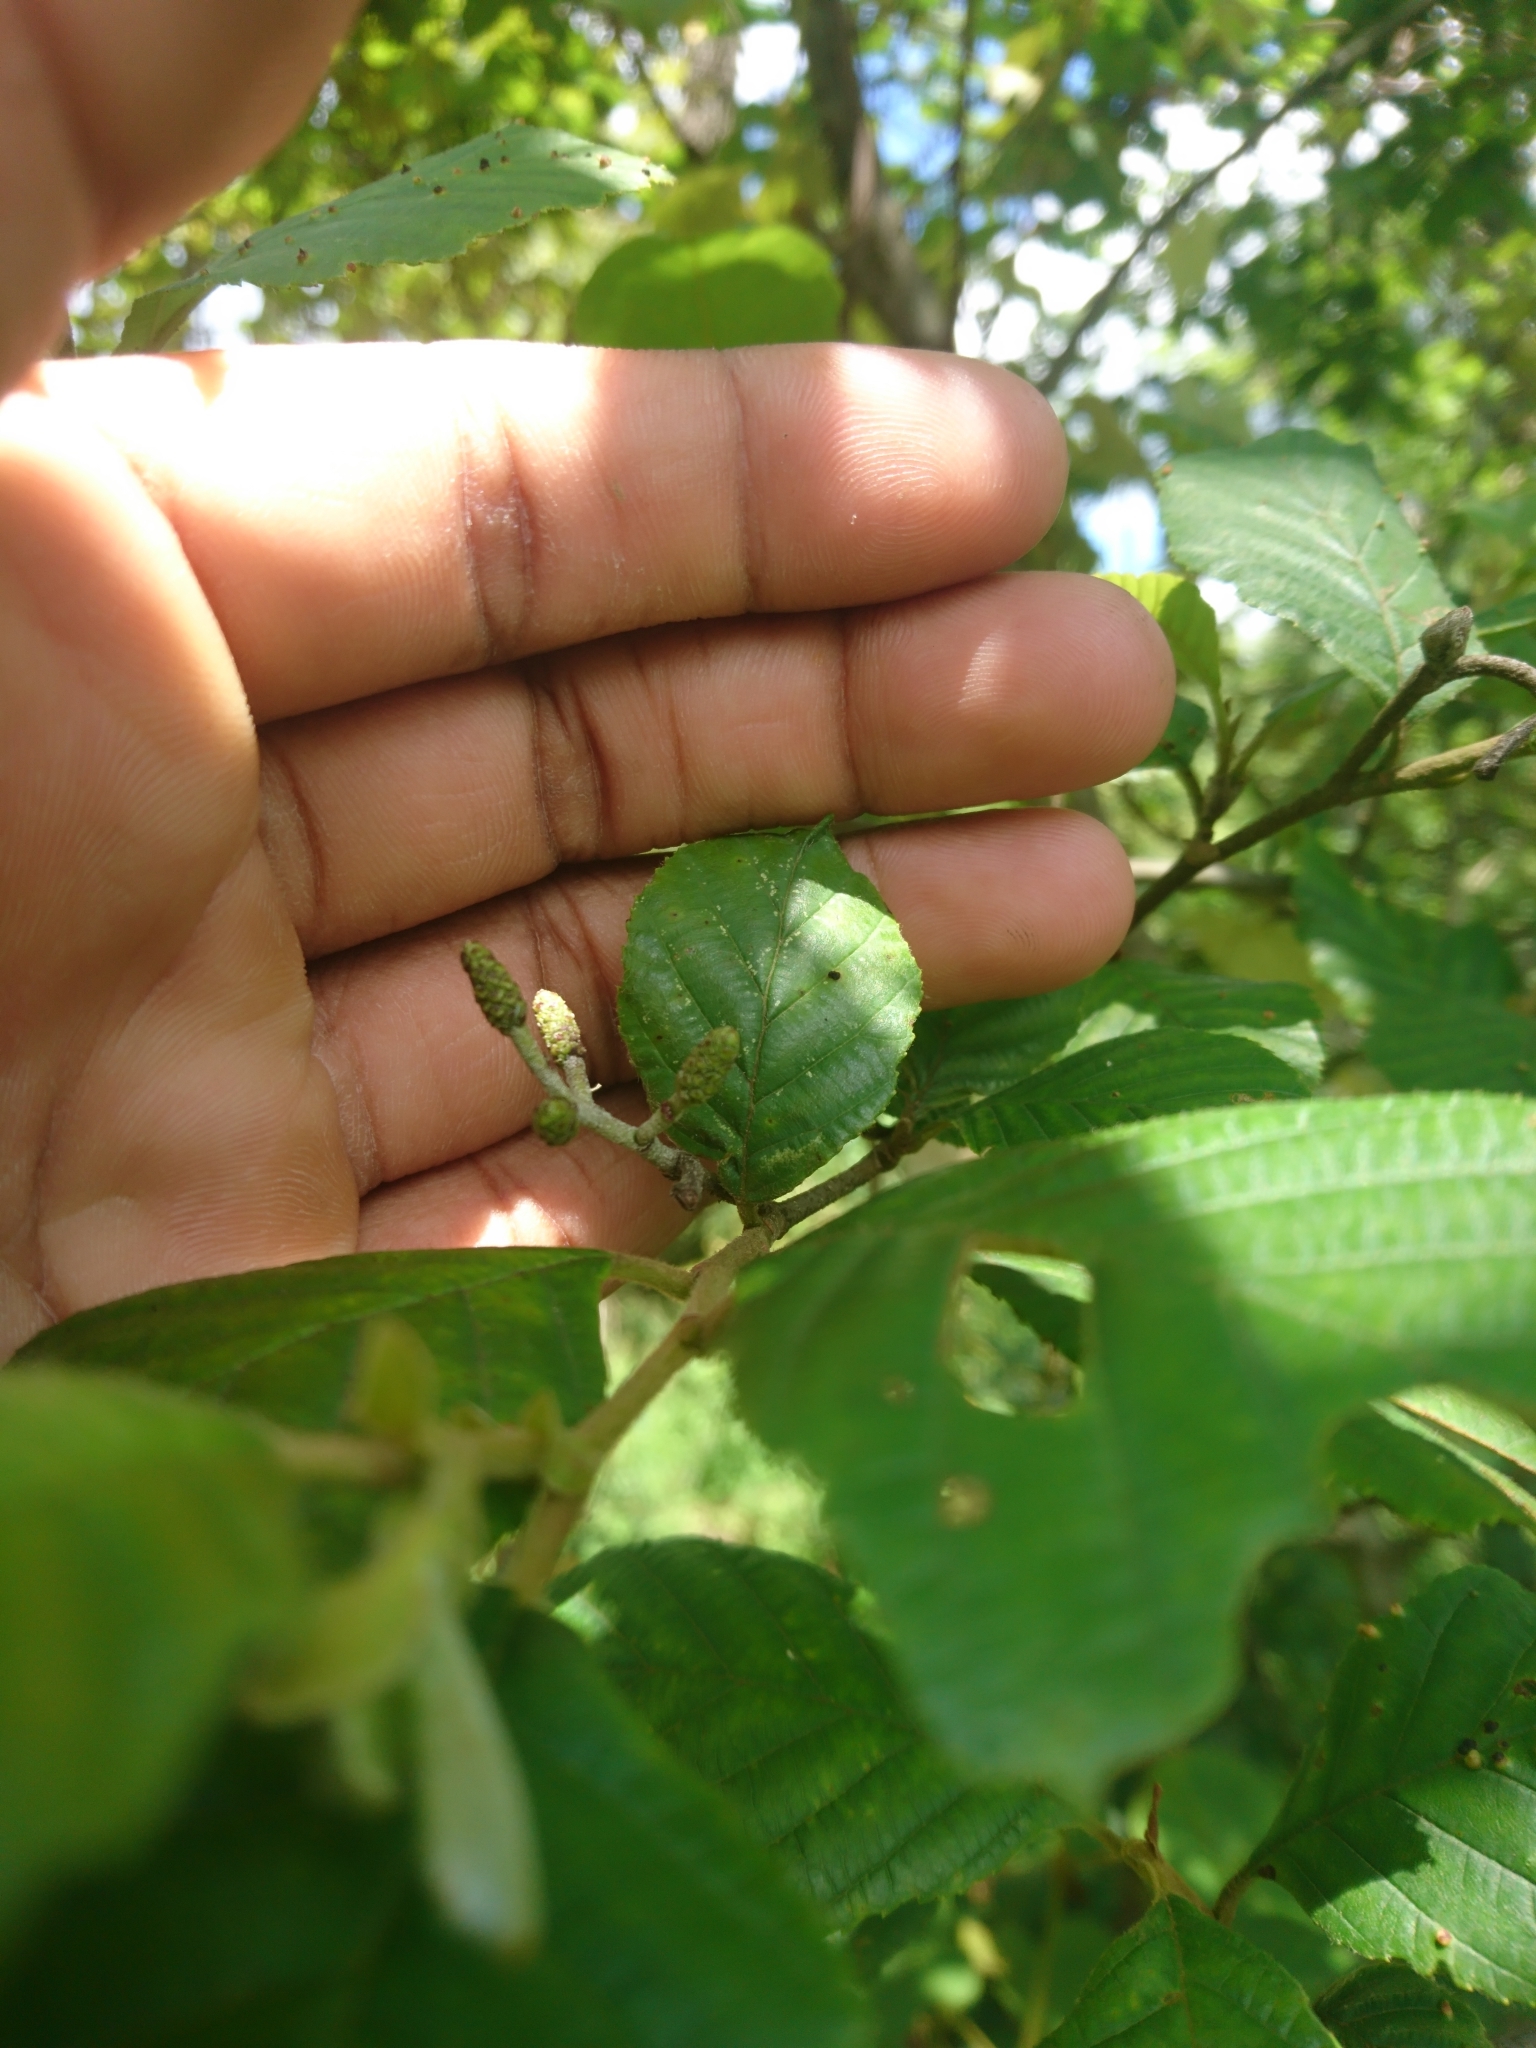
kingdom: Plantae
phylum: Tracheophyta
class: Magnoliopsida
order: Fagales
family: Betulaceae
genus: Alnus
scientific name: Alnus serrulata
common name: Hazel alder
